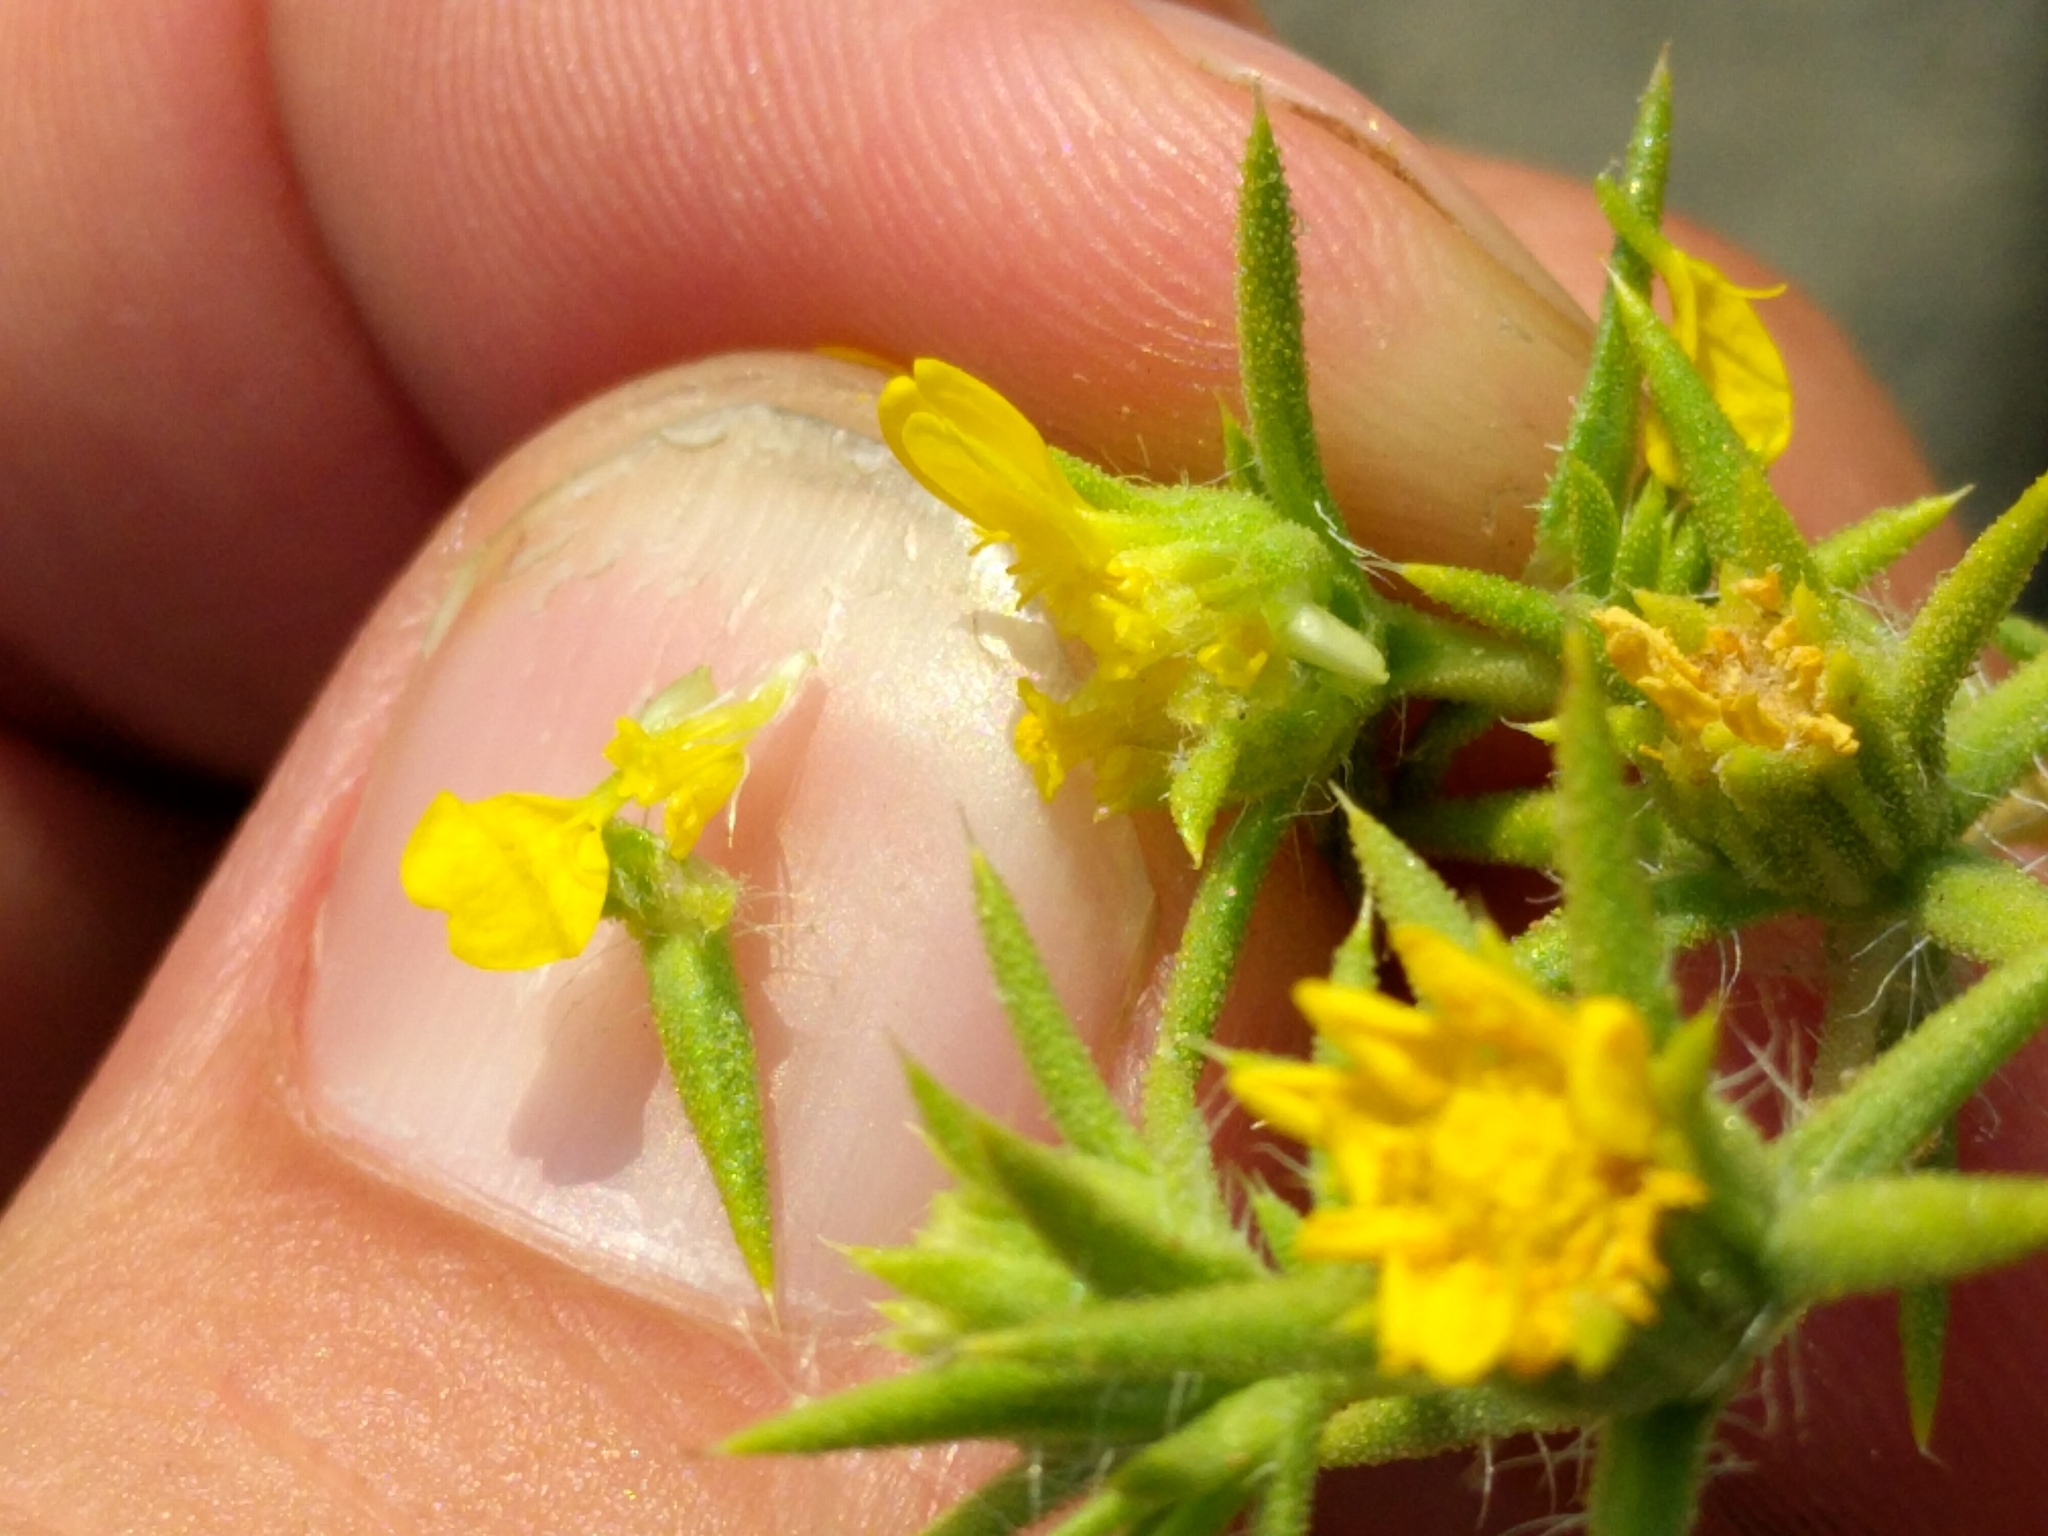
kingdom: Plantae
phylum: Tracheophyta
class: Magnoliopsida
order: Asterales
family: Asteraceae
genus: Centromadia
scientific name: Centromadia parryi
